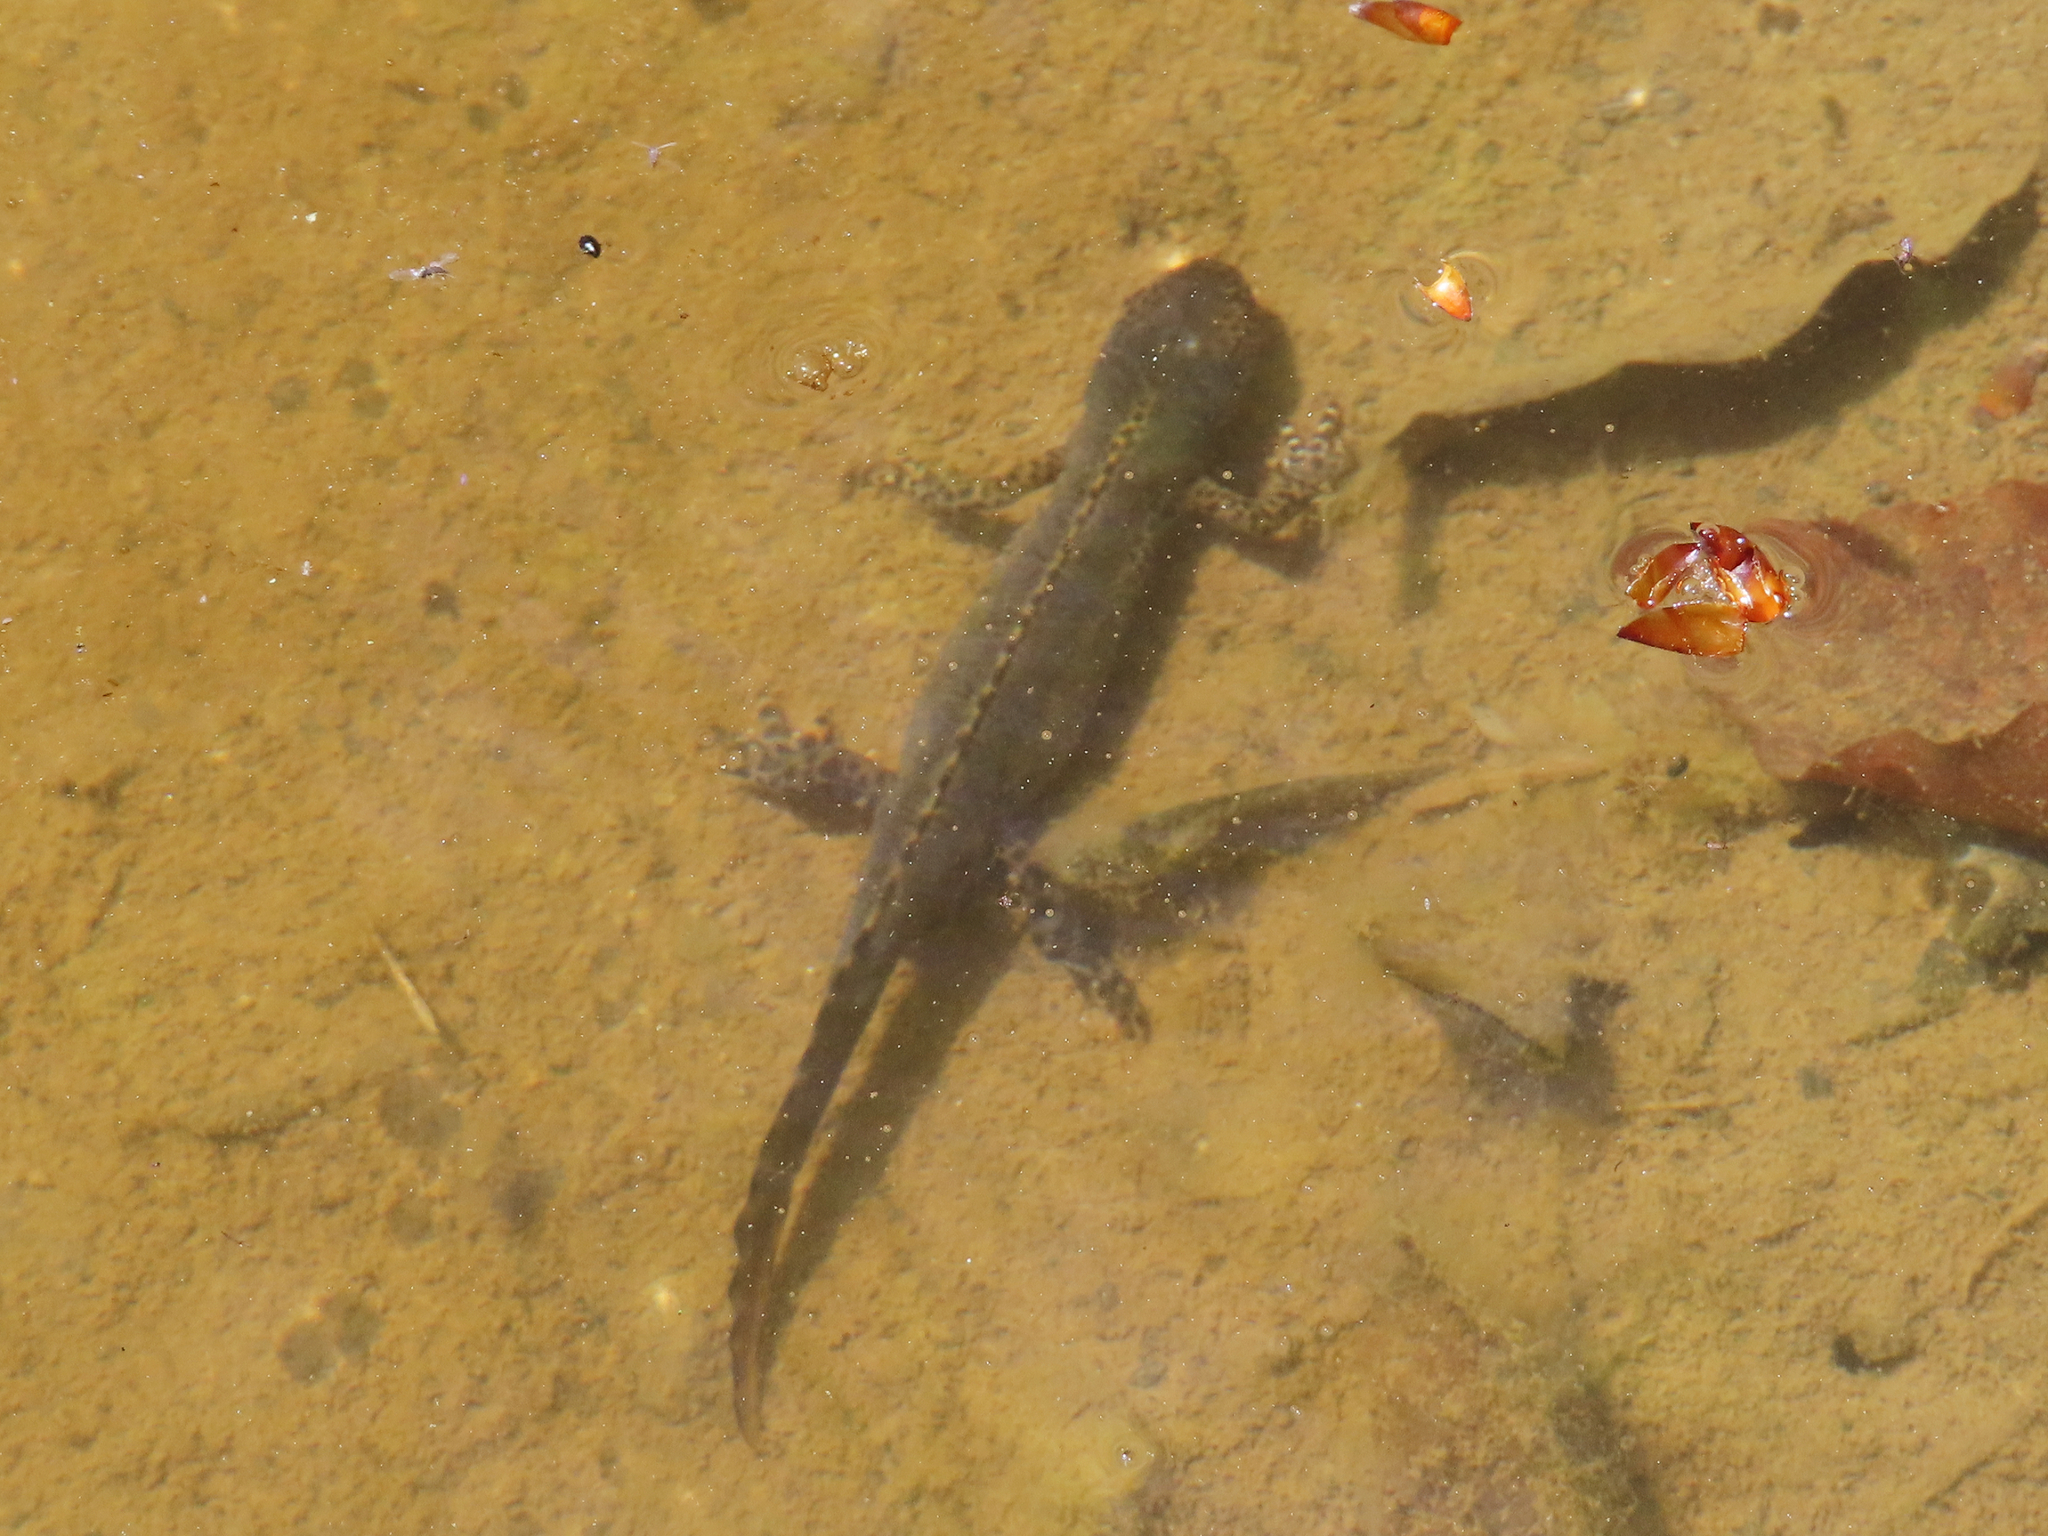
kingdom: Animalia
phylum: Chordata
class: Amphibia
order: Caudata
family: Salamandridae
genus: Ichthyosaura
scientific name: Ichthyosaura alpestris
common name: Alpine newt
